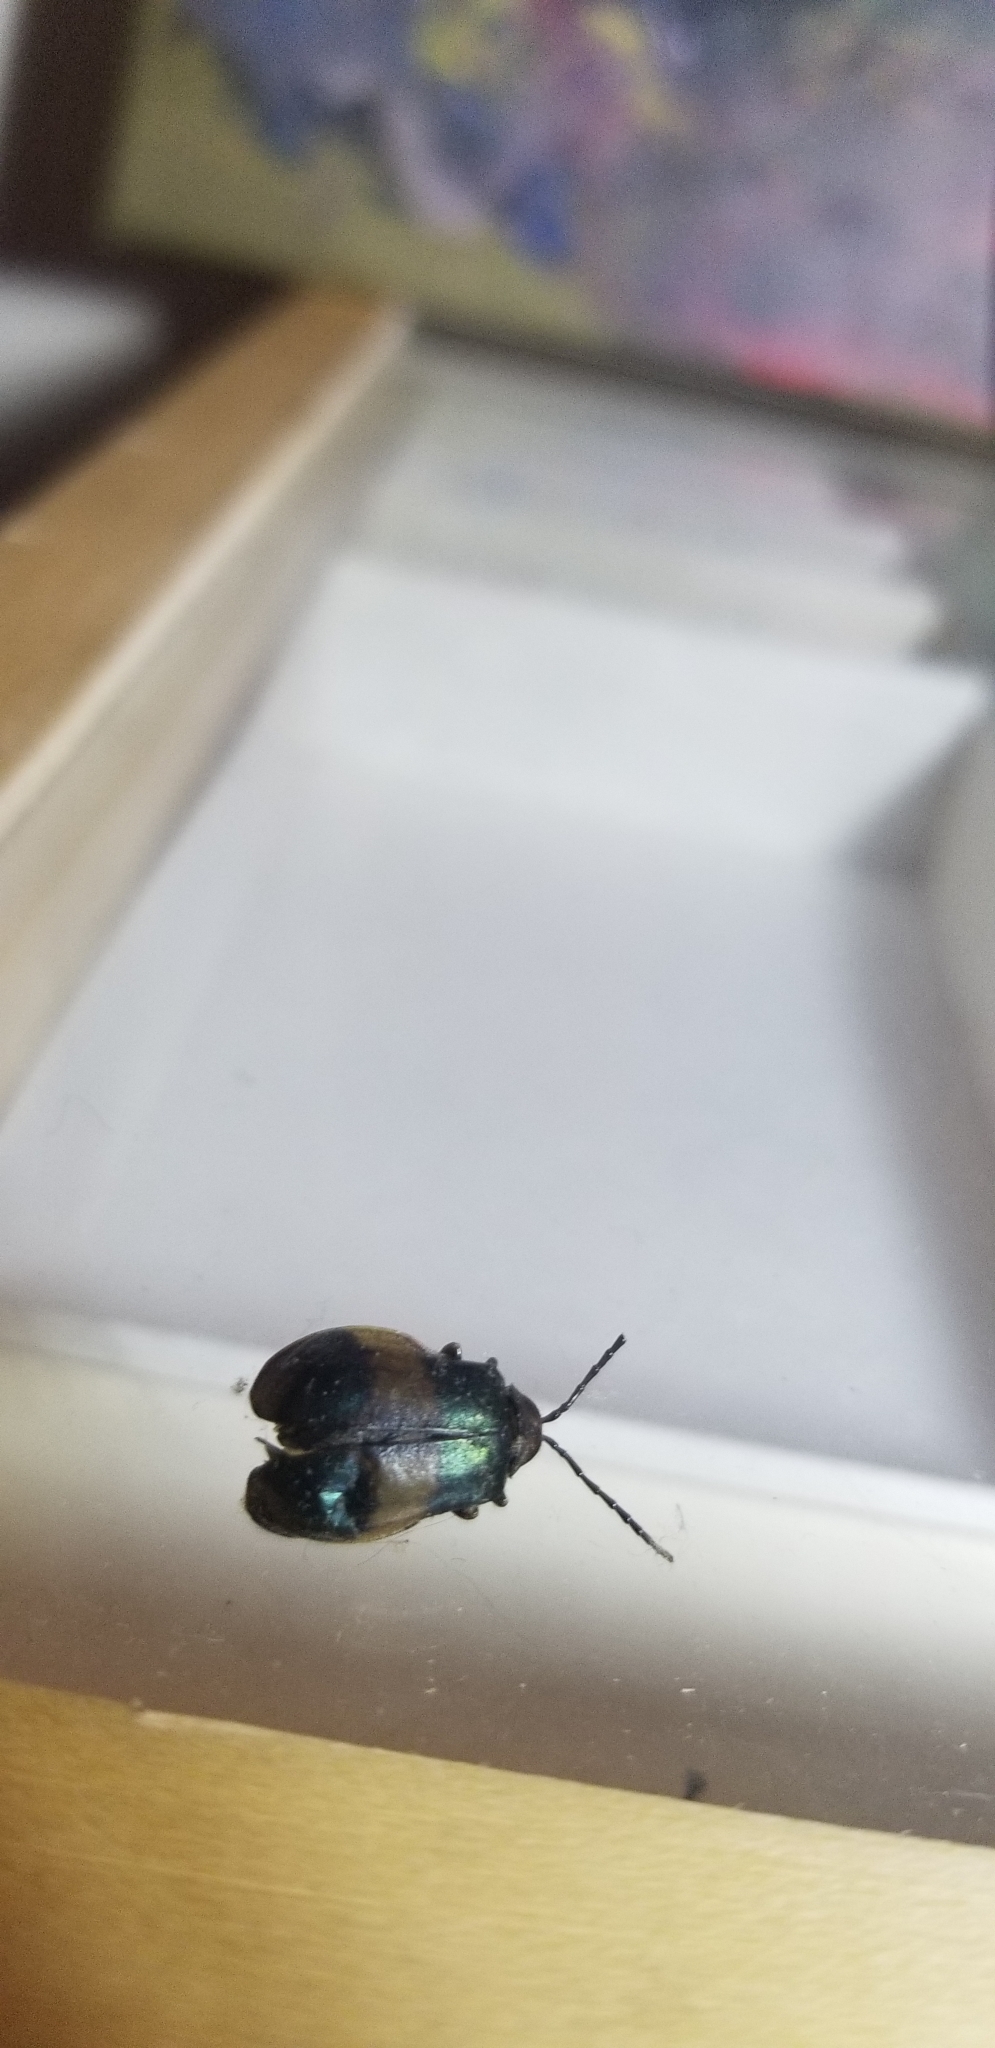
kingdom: Animalia
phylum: Arthropoda
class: Insecta
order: Coleoptera
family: Chrysomelidae
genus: Monocesta
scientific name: Monocesta coryli
